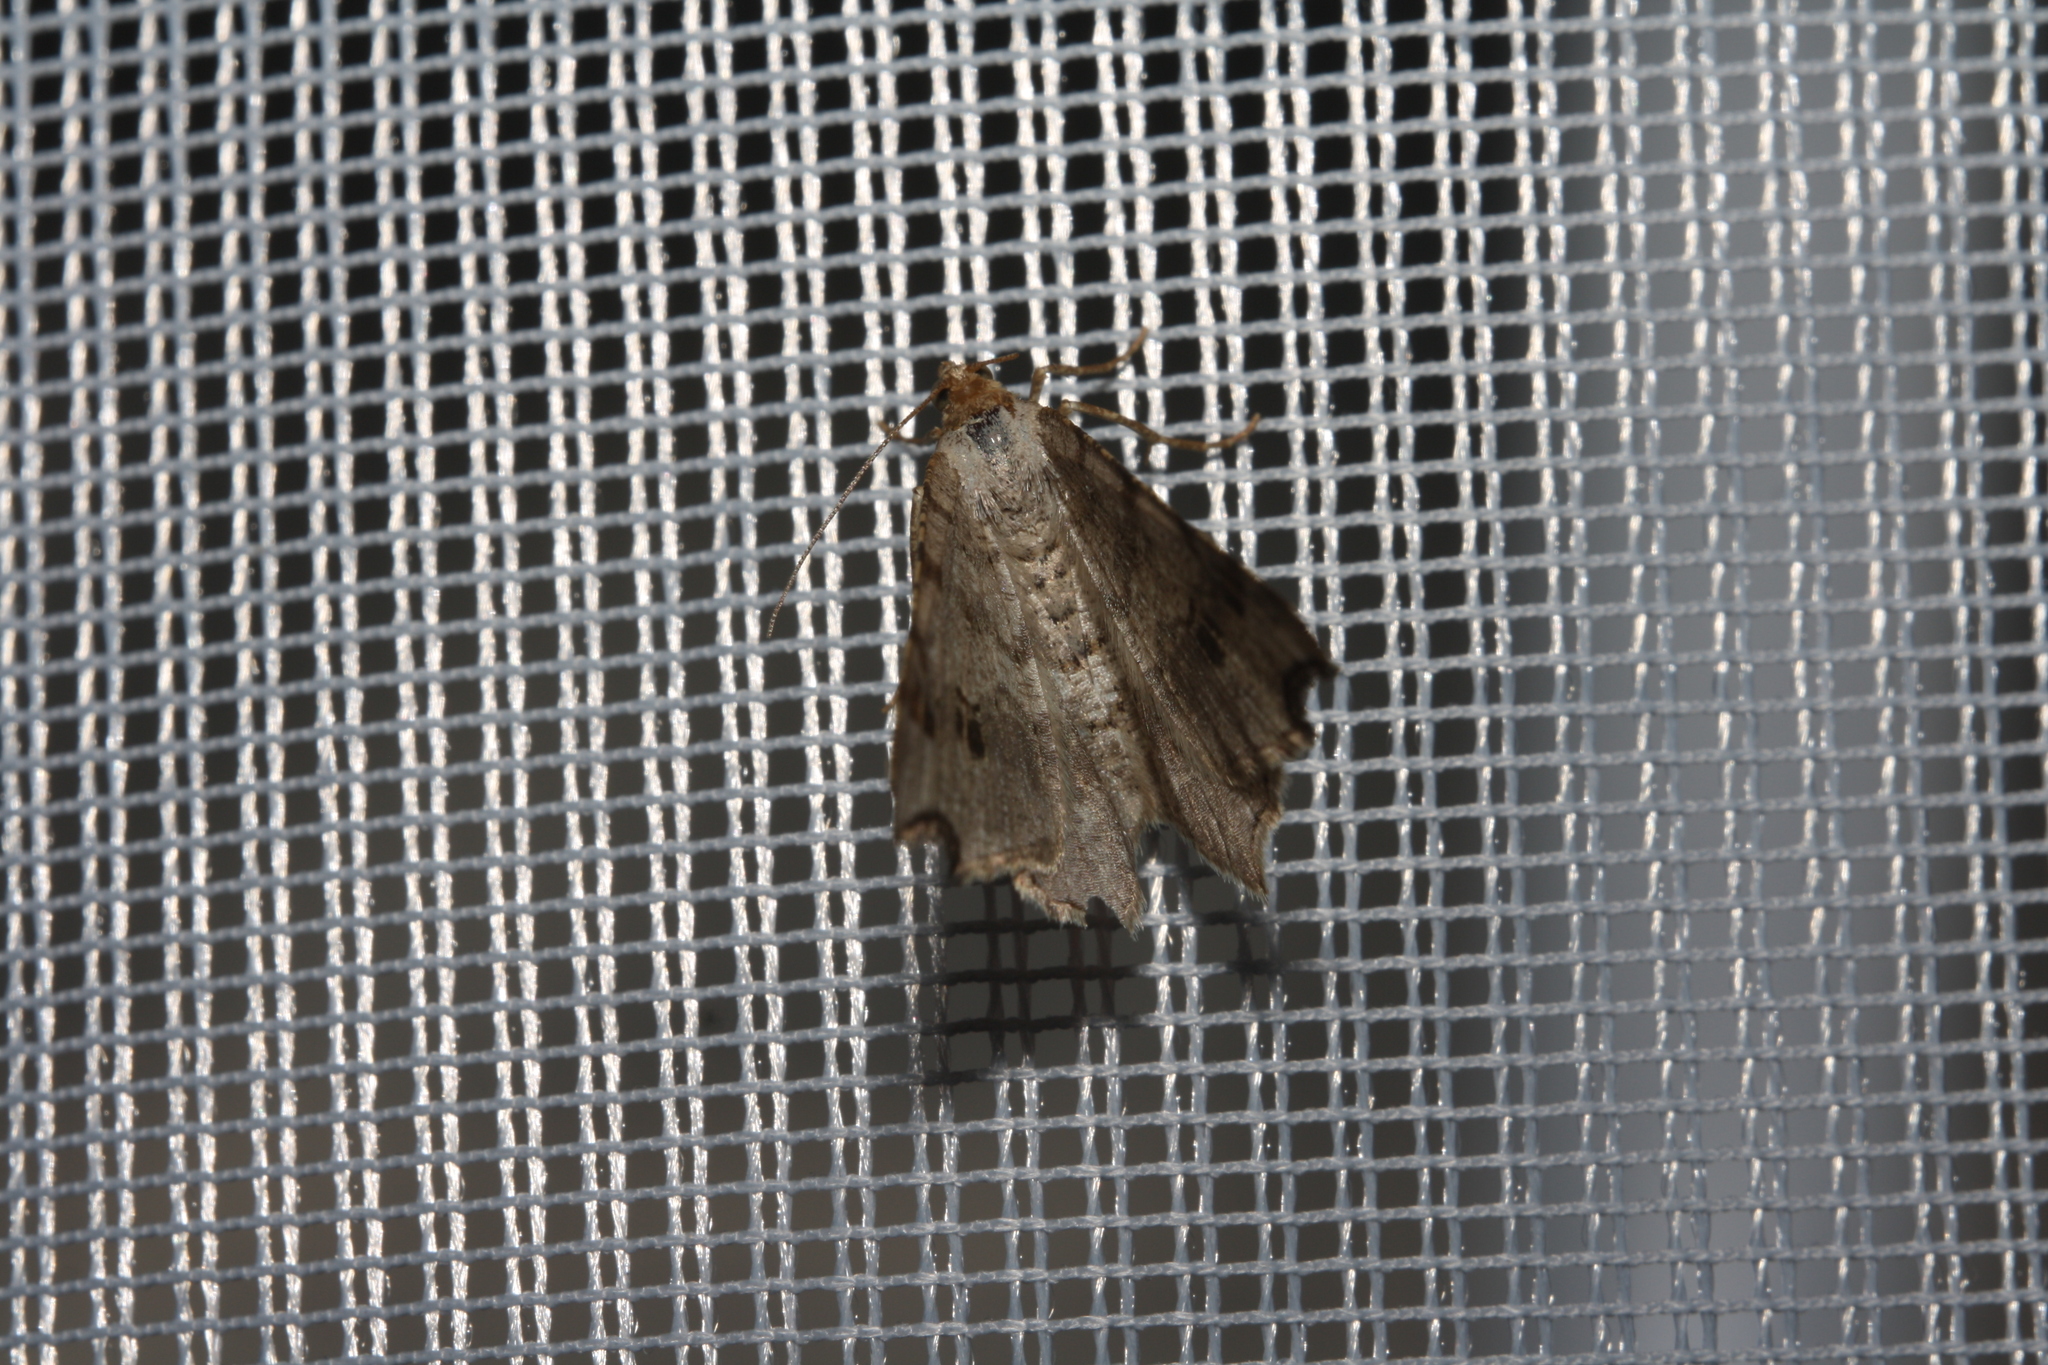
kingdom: Animalia
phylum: Arthropoda
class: Insecta
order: Lepidoptera
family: Geometridae
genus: Macaria
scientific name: Macaria alternata
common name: Sharp-angled peacock
